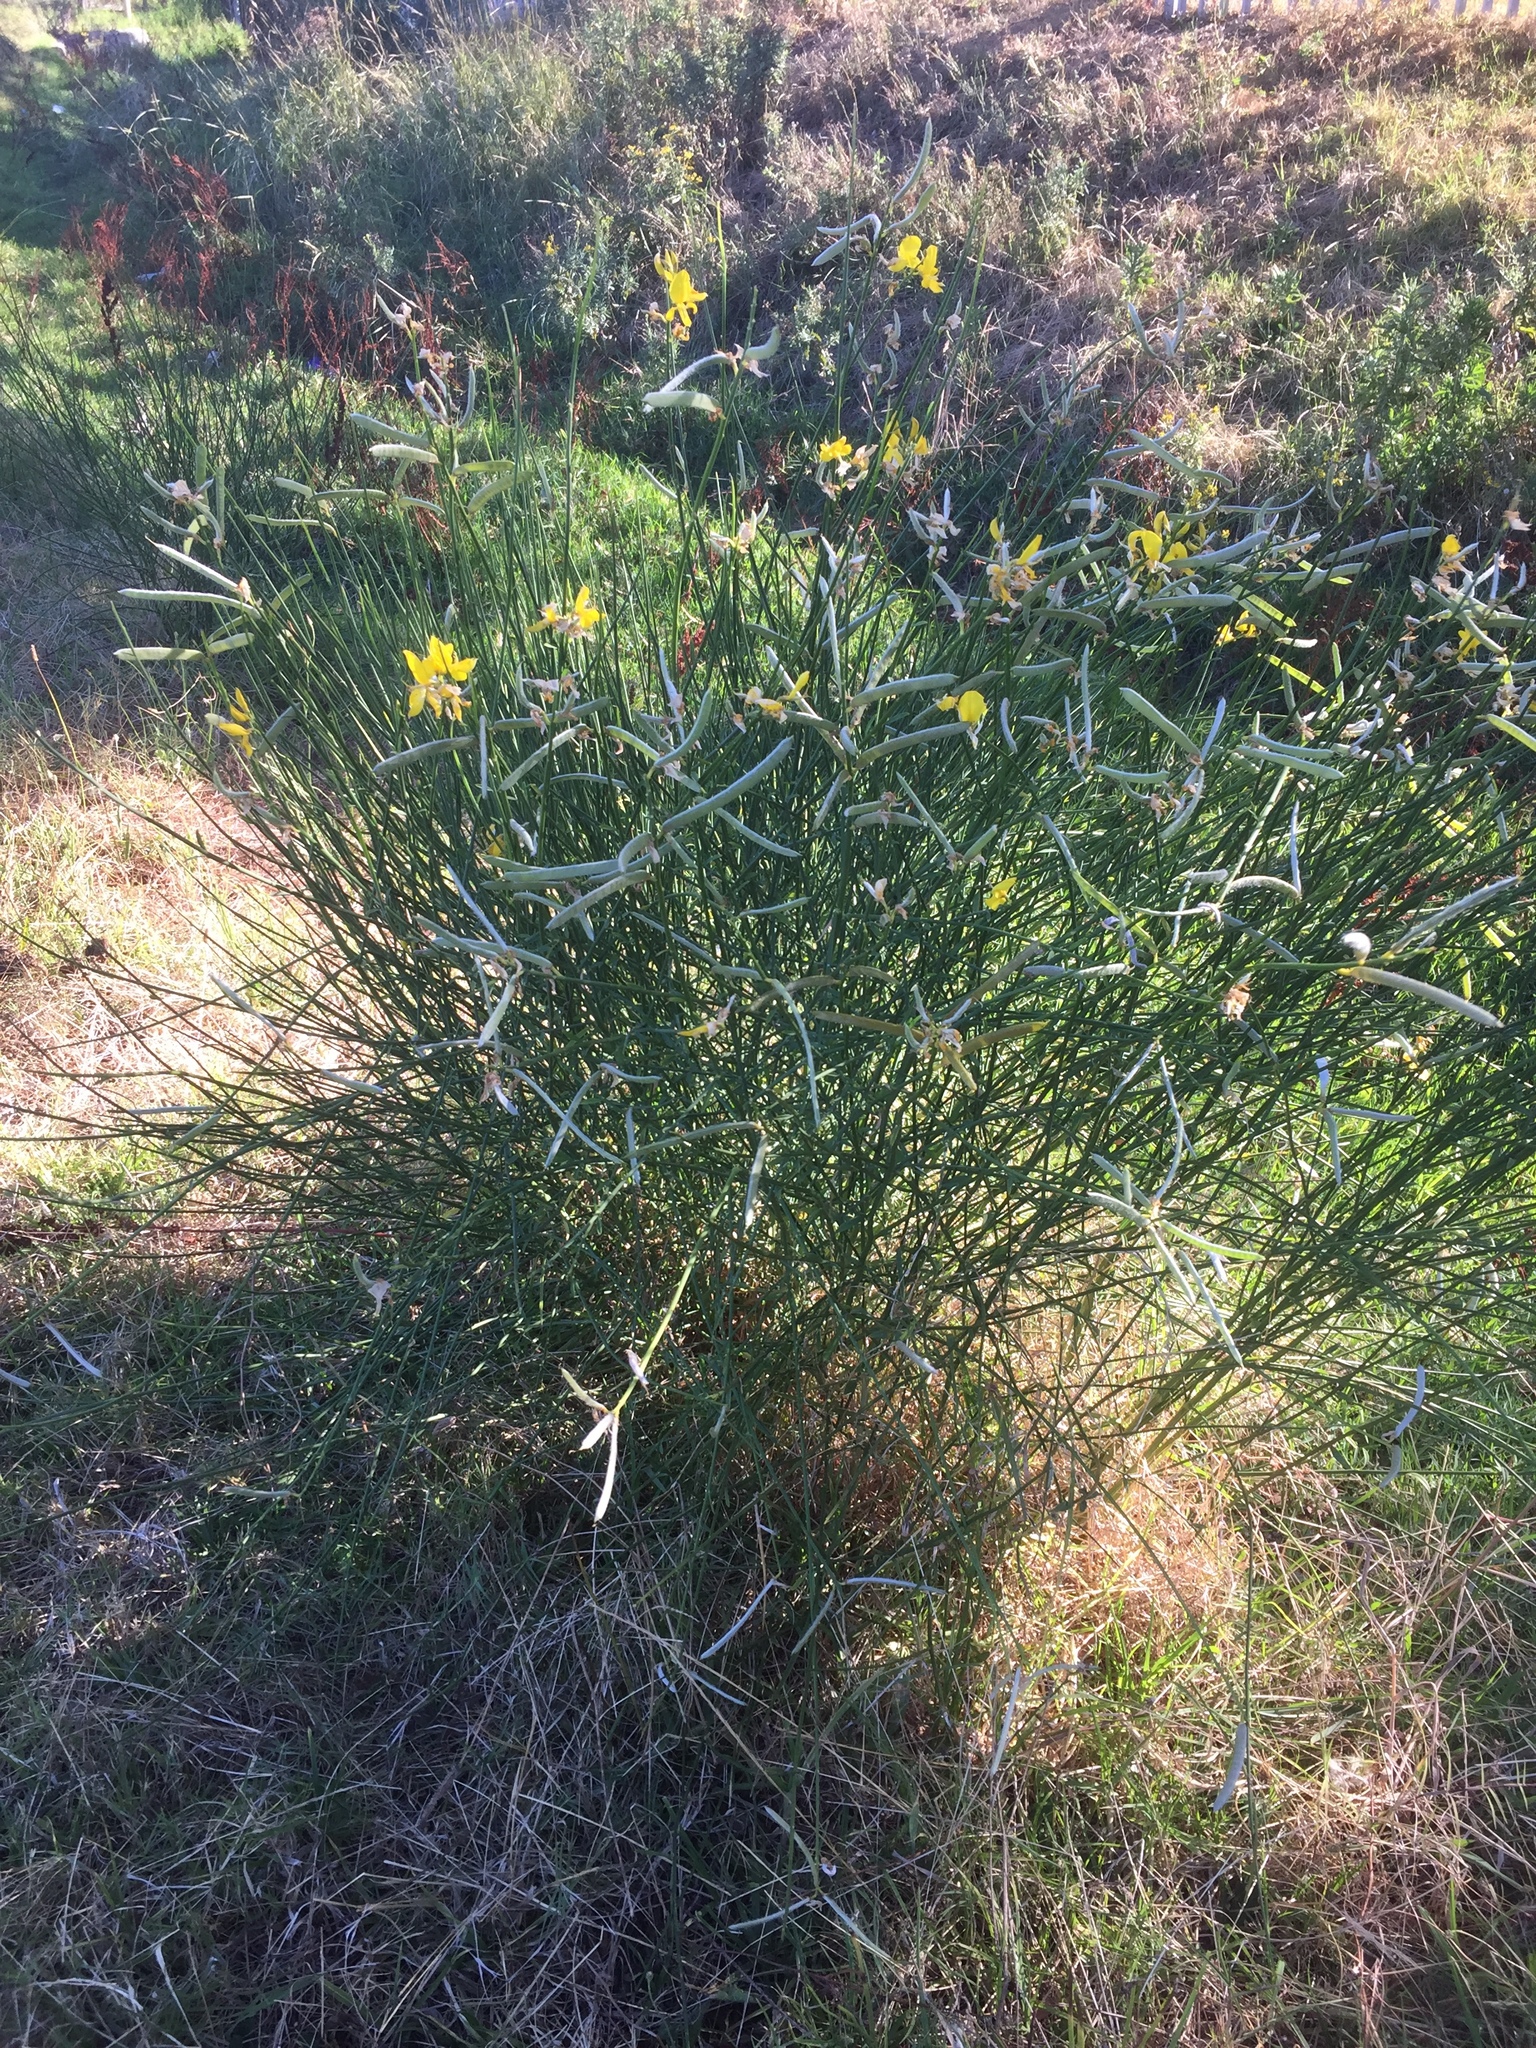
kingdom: Plantae
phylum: Tracheophyta
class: Magnoliopsida
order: Fabales
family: Fabaceae
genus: Spartium
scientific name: Spartium junceum
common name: Spanish broom
